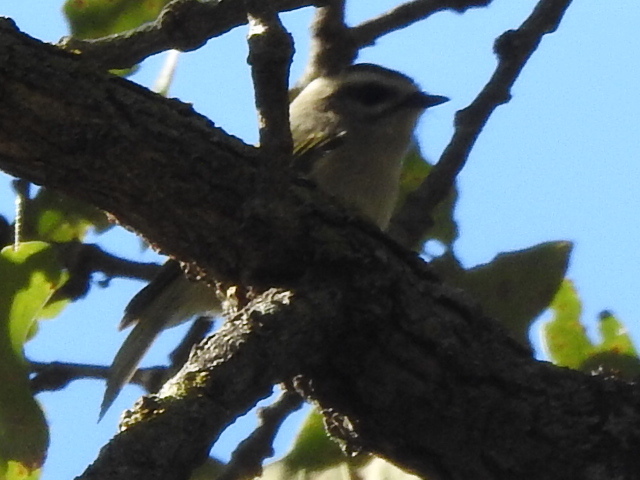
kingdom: Animalia
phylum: Chordata
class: Aves
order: Passeriformes
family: Regulidae
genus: Regulus
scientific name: Regulus satrapa
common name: Golden-crowned kinglet
